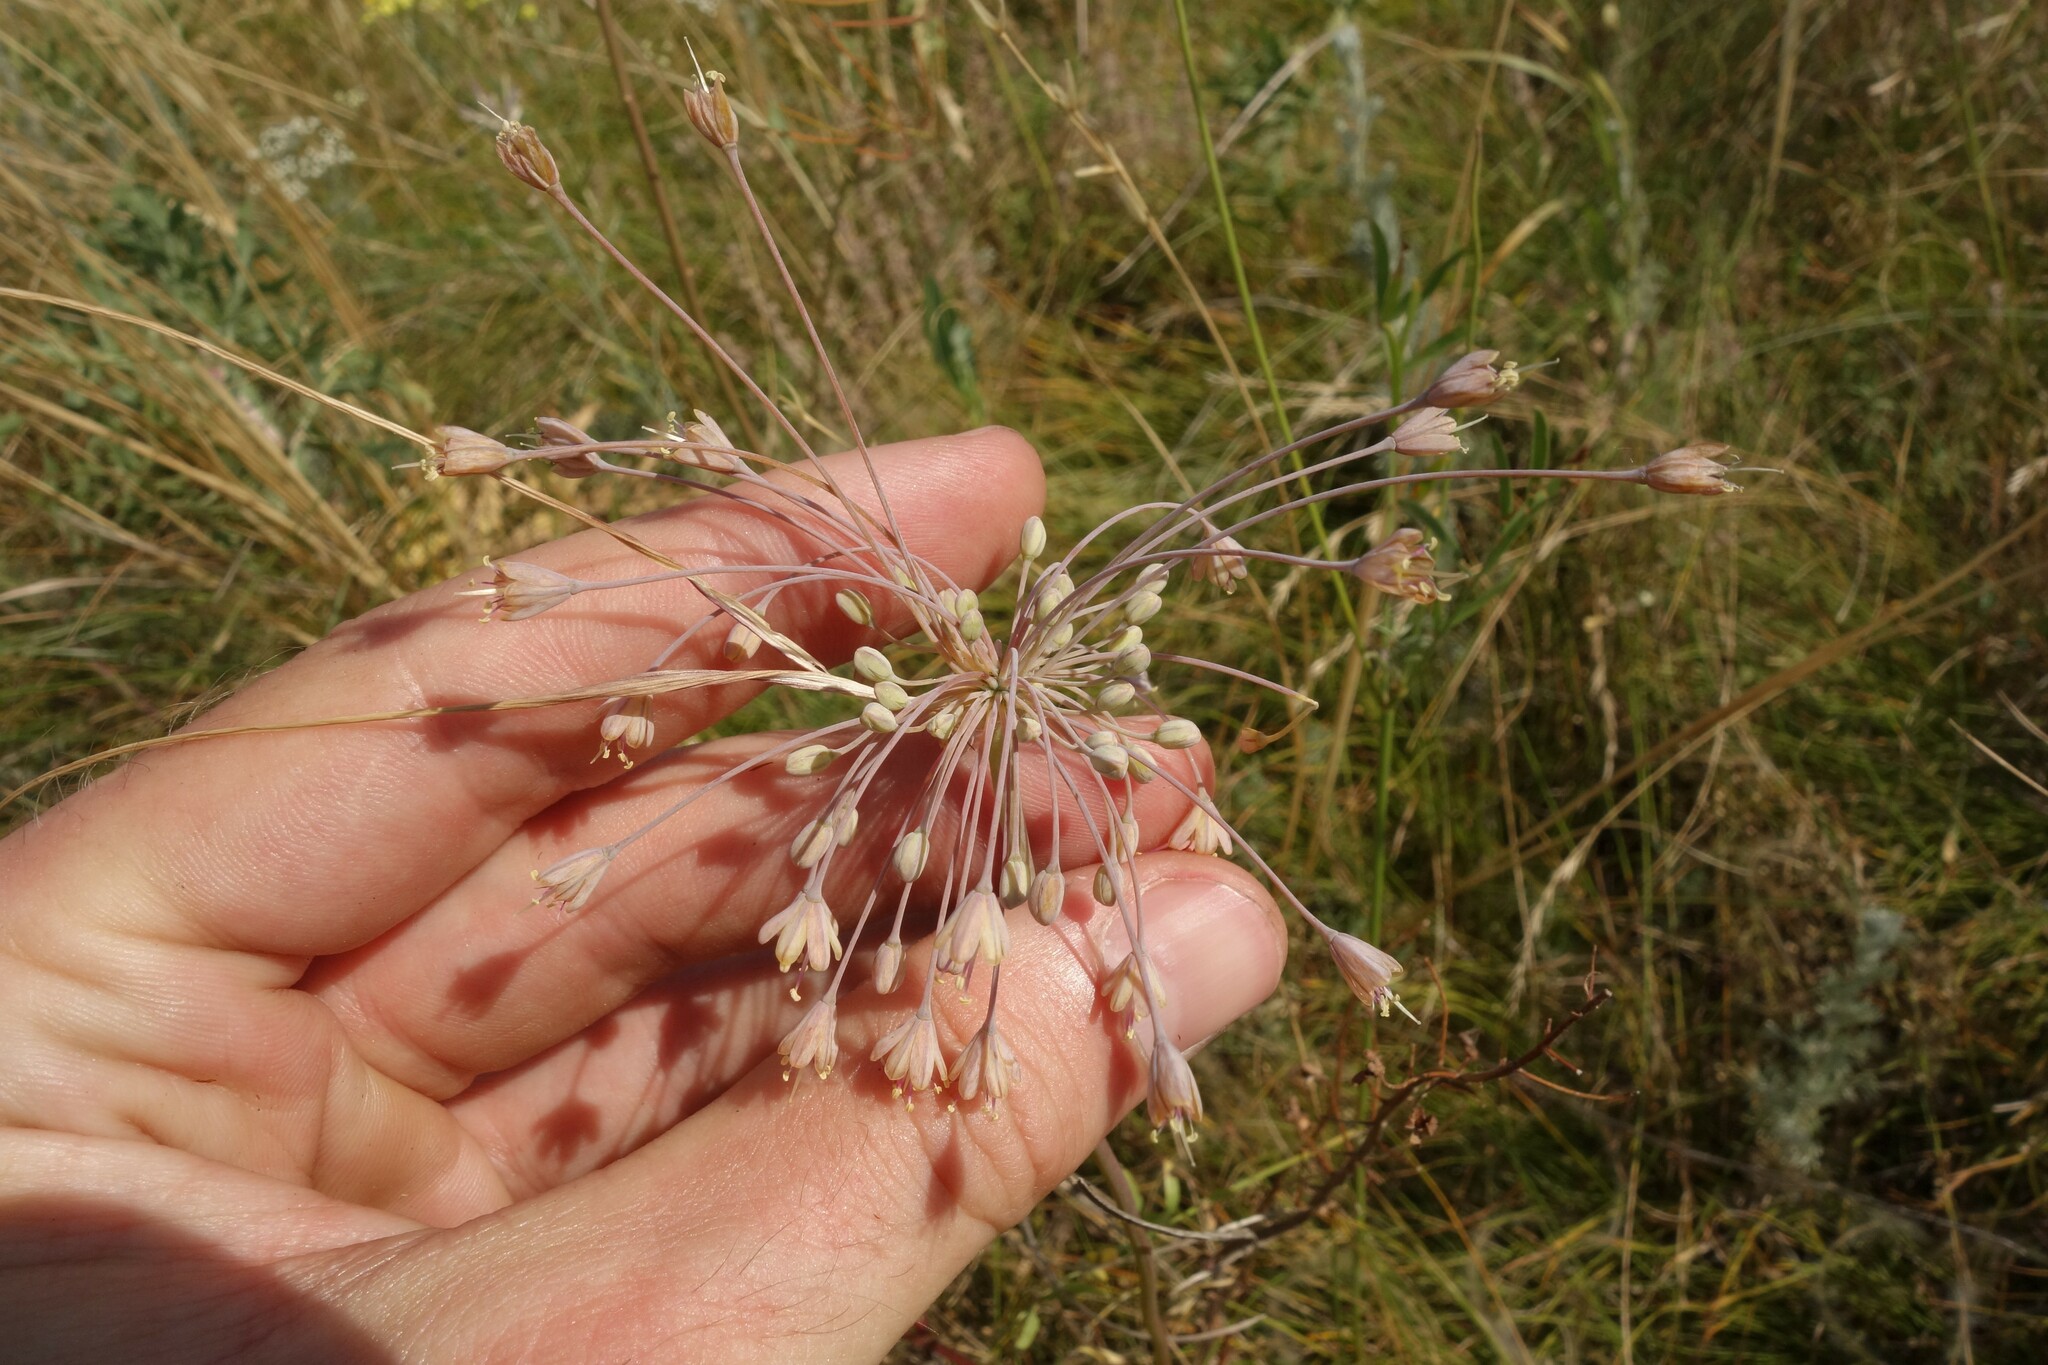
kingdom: Plantae
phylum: Tracheophyta
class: Liliopsida
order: Asparagales
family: Amaryllidaceae
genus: Allium
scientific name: Allium flavum
